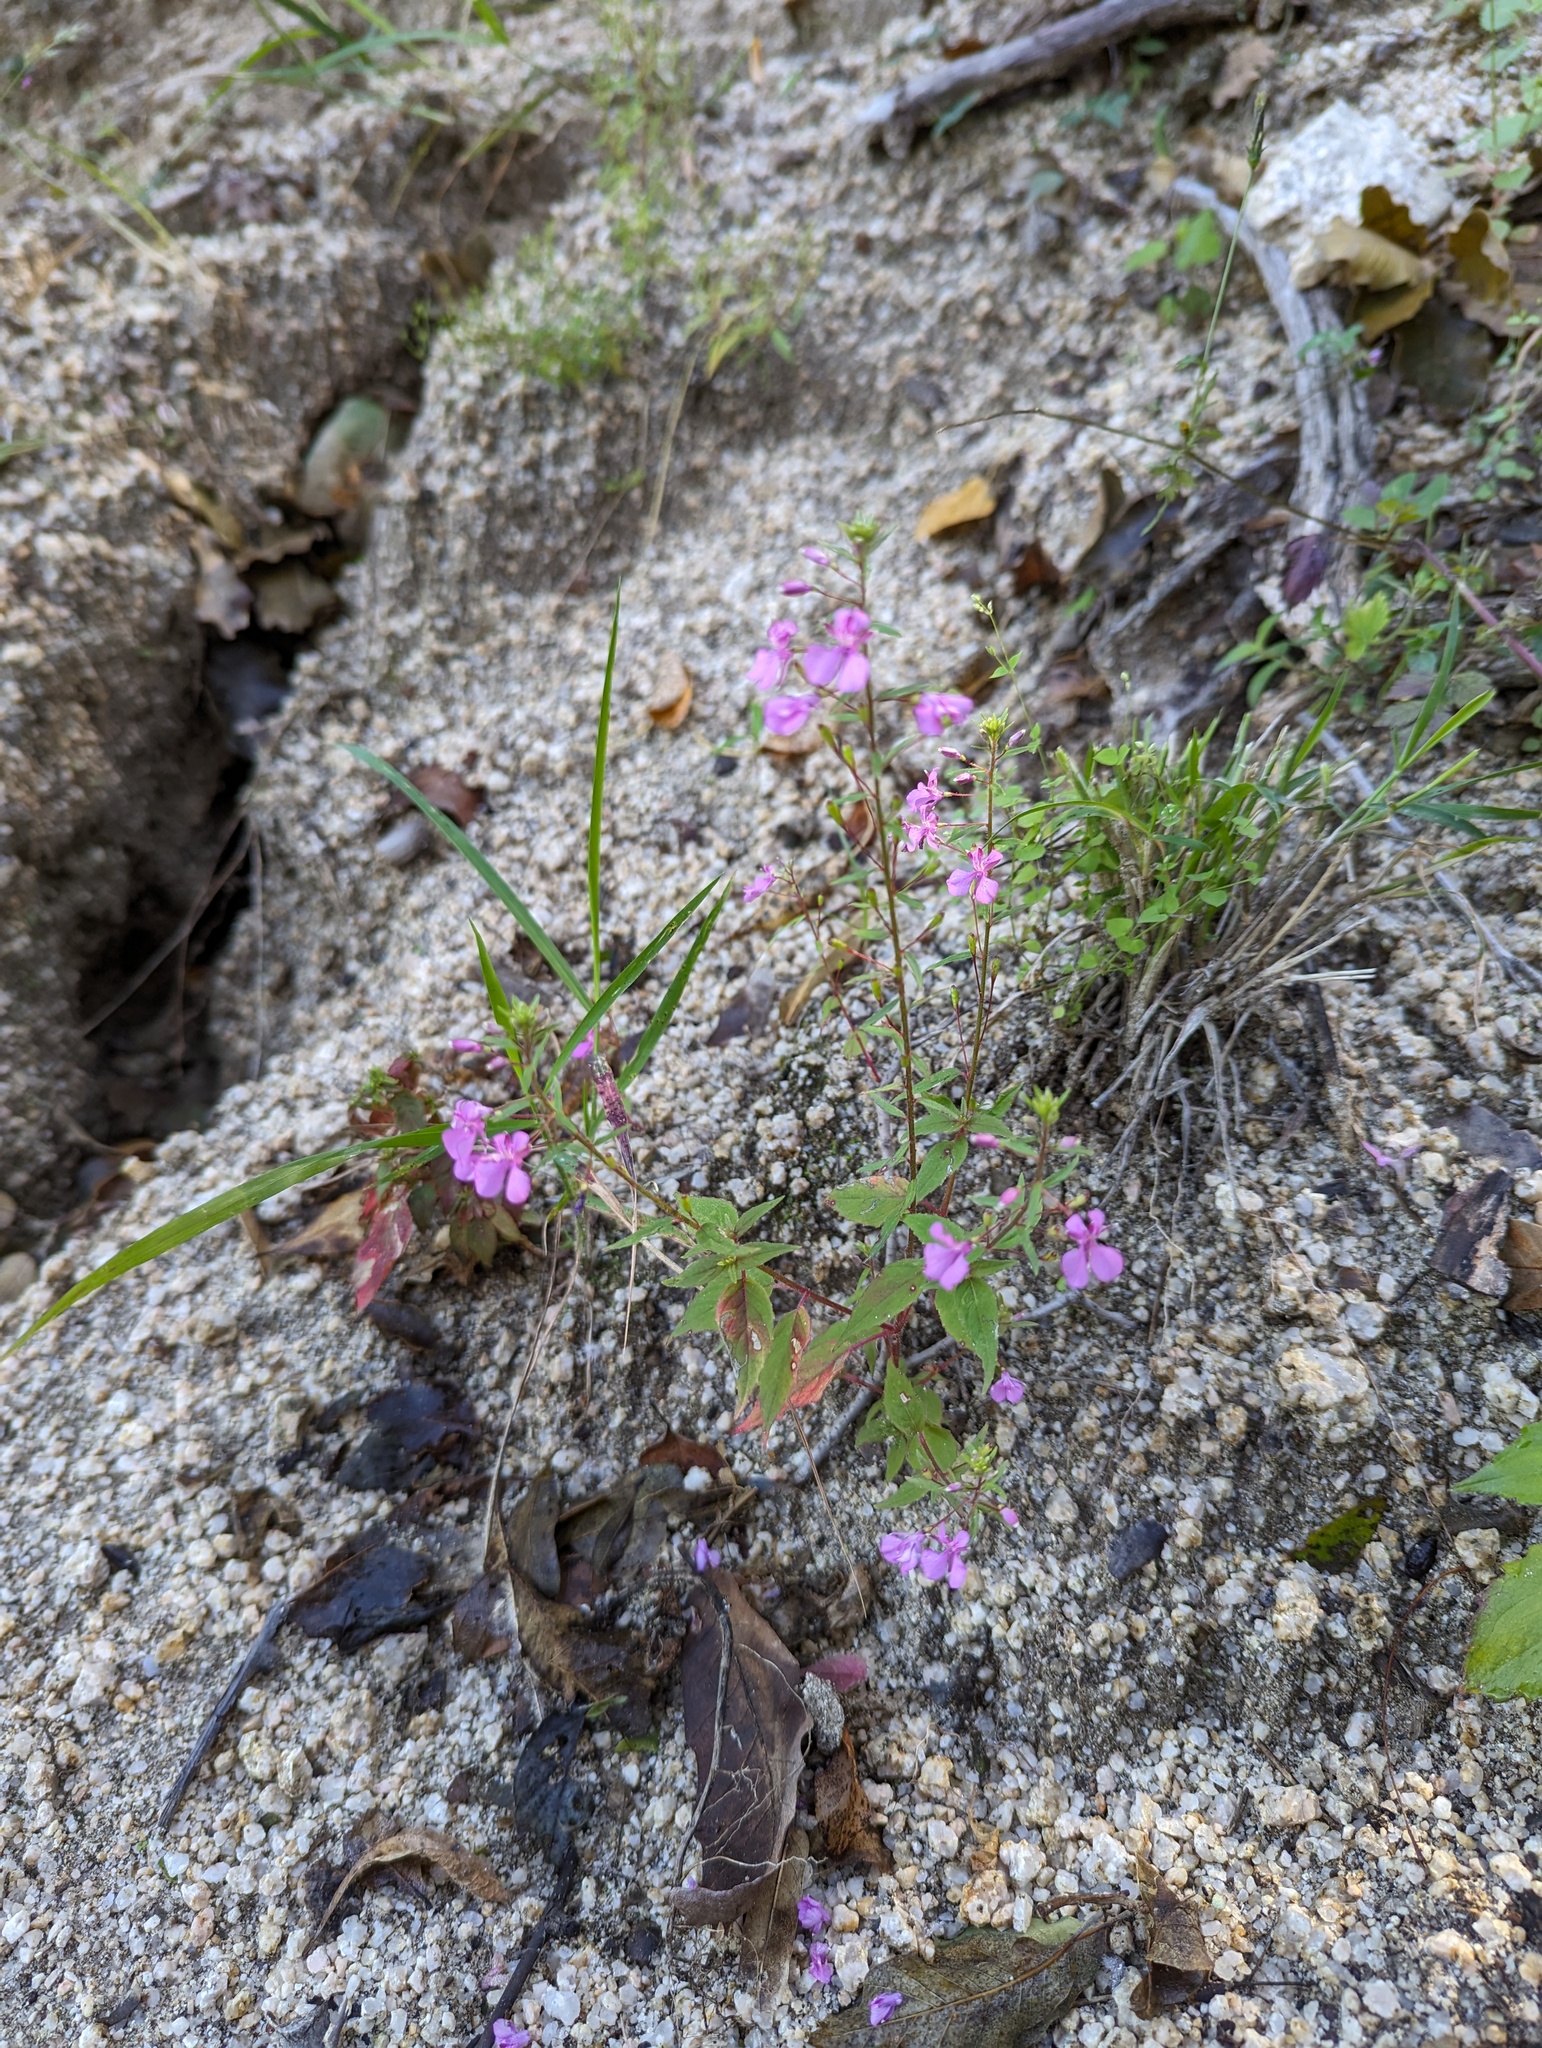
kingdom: Plantae
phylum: Tracheophyta
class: Magnoliopsida
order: Myrtales
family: Onagraceae
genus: Lopezia
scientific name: Lopezia clavata
